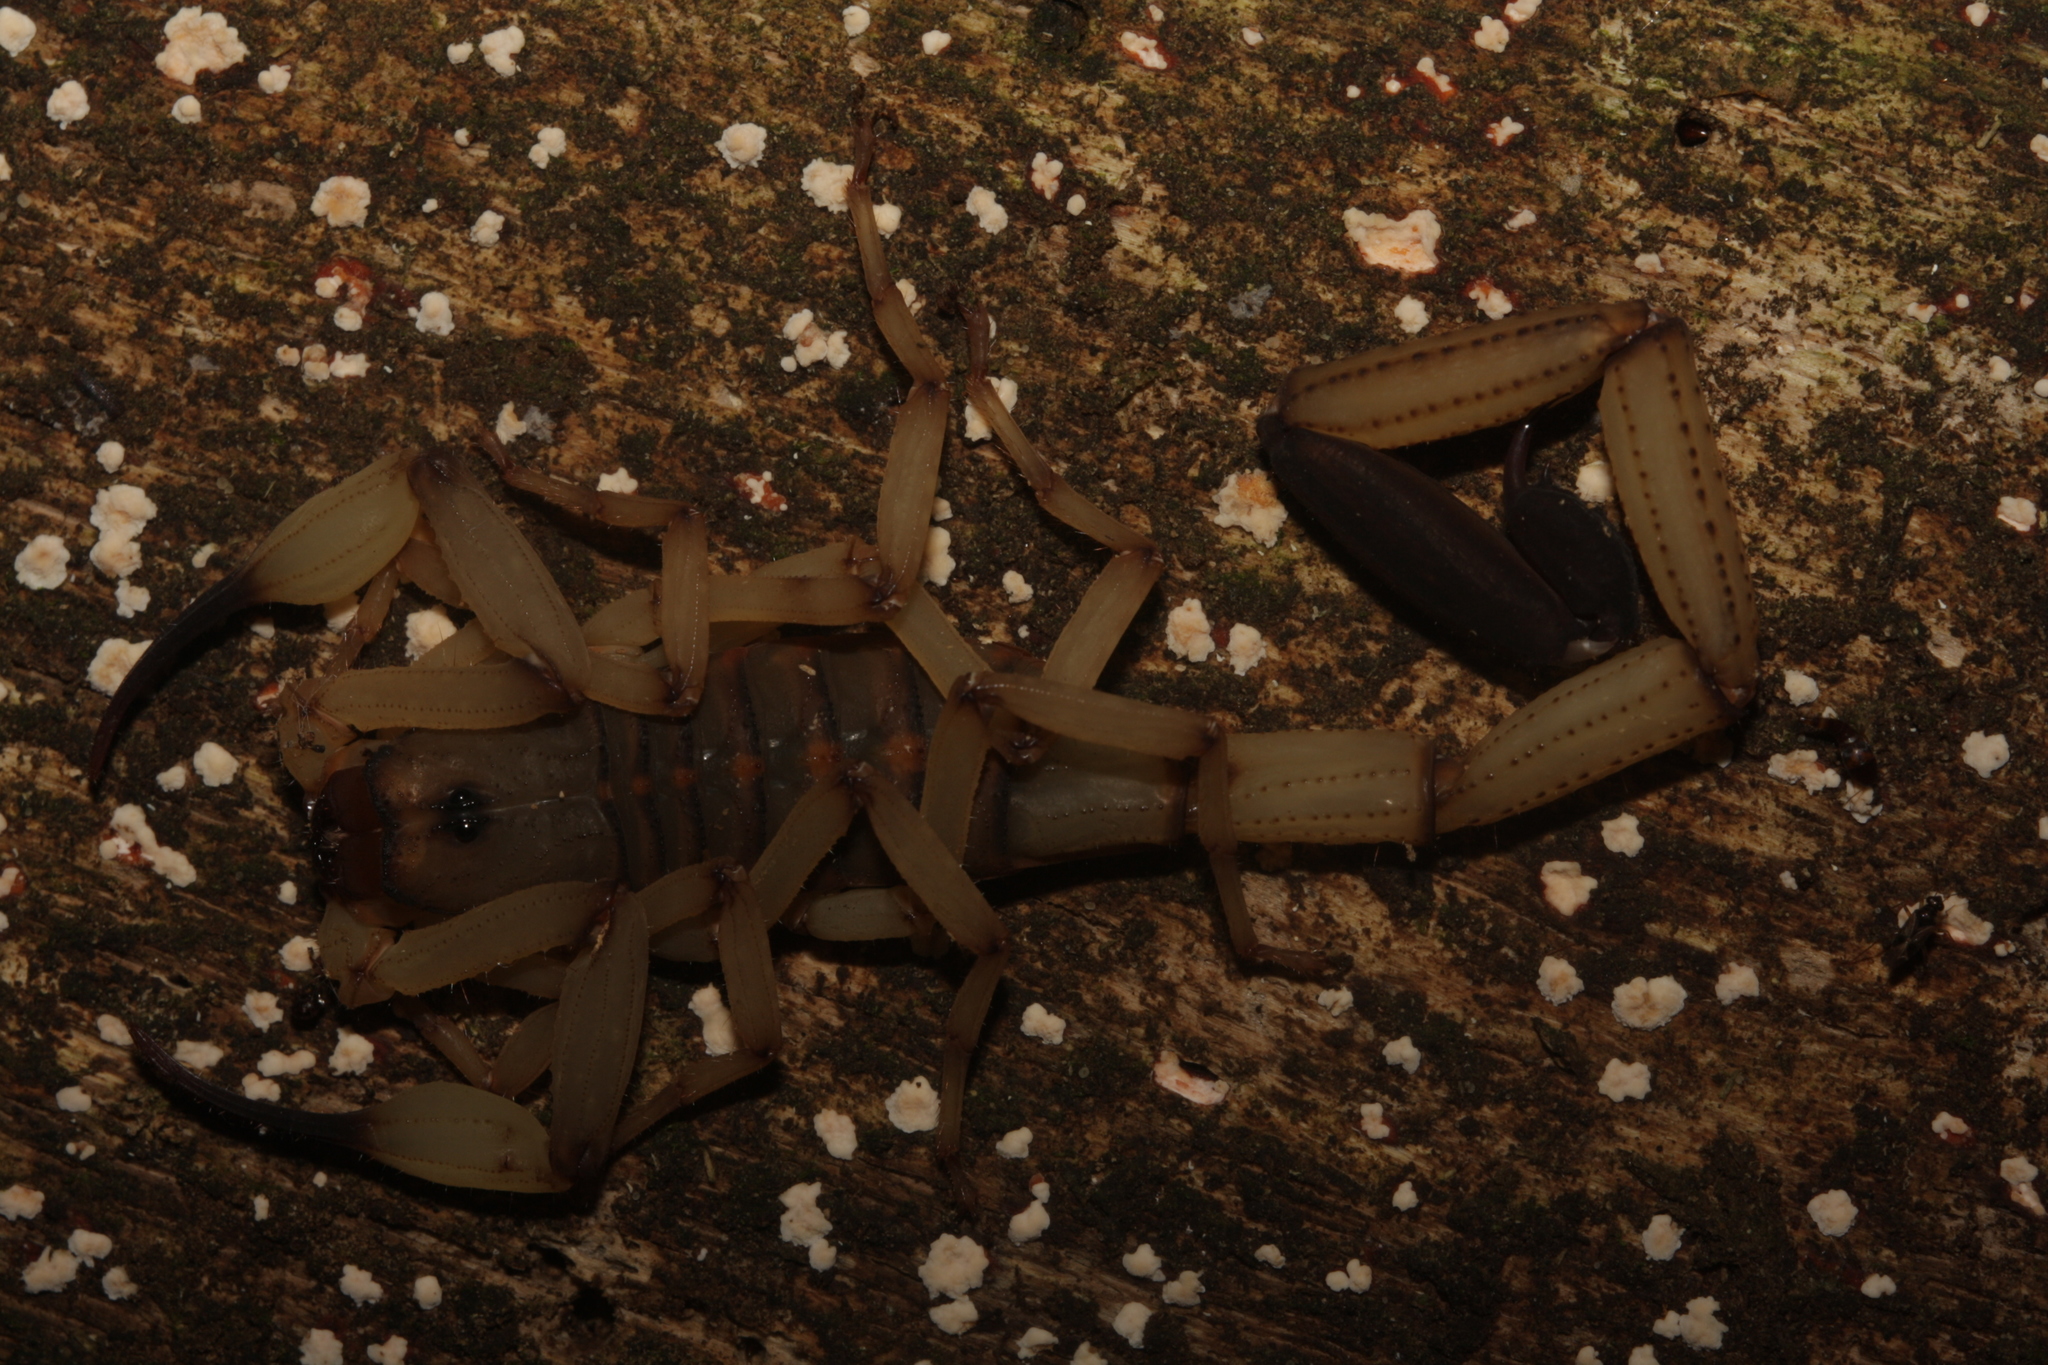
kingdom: Animalia
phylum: Arthropoda
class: Arachnida
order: Scorpiones
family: Buthidae
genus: Centruroides
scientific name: Centruroides limbatus
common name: Scorpions
